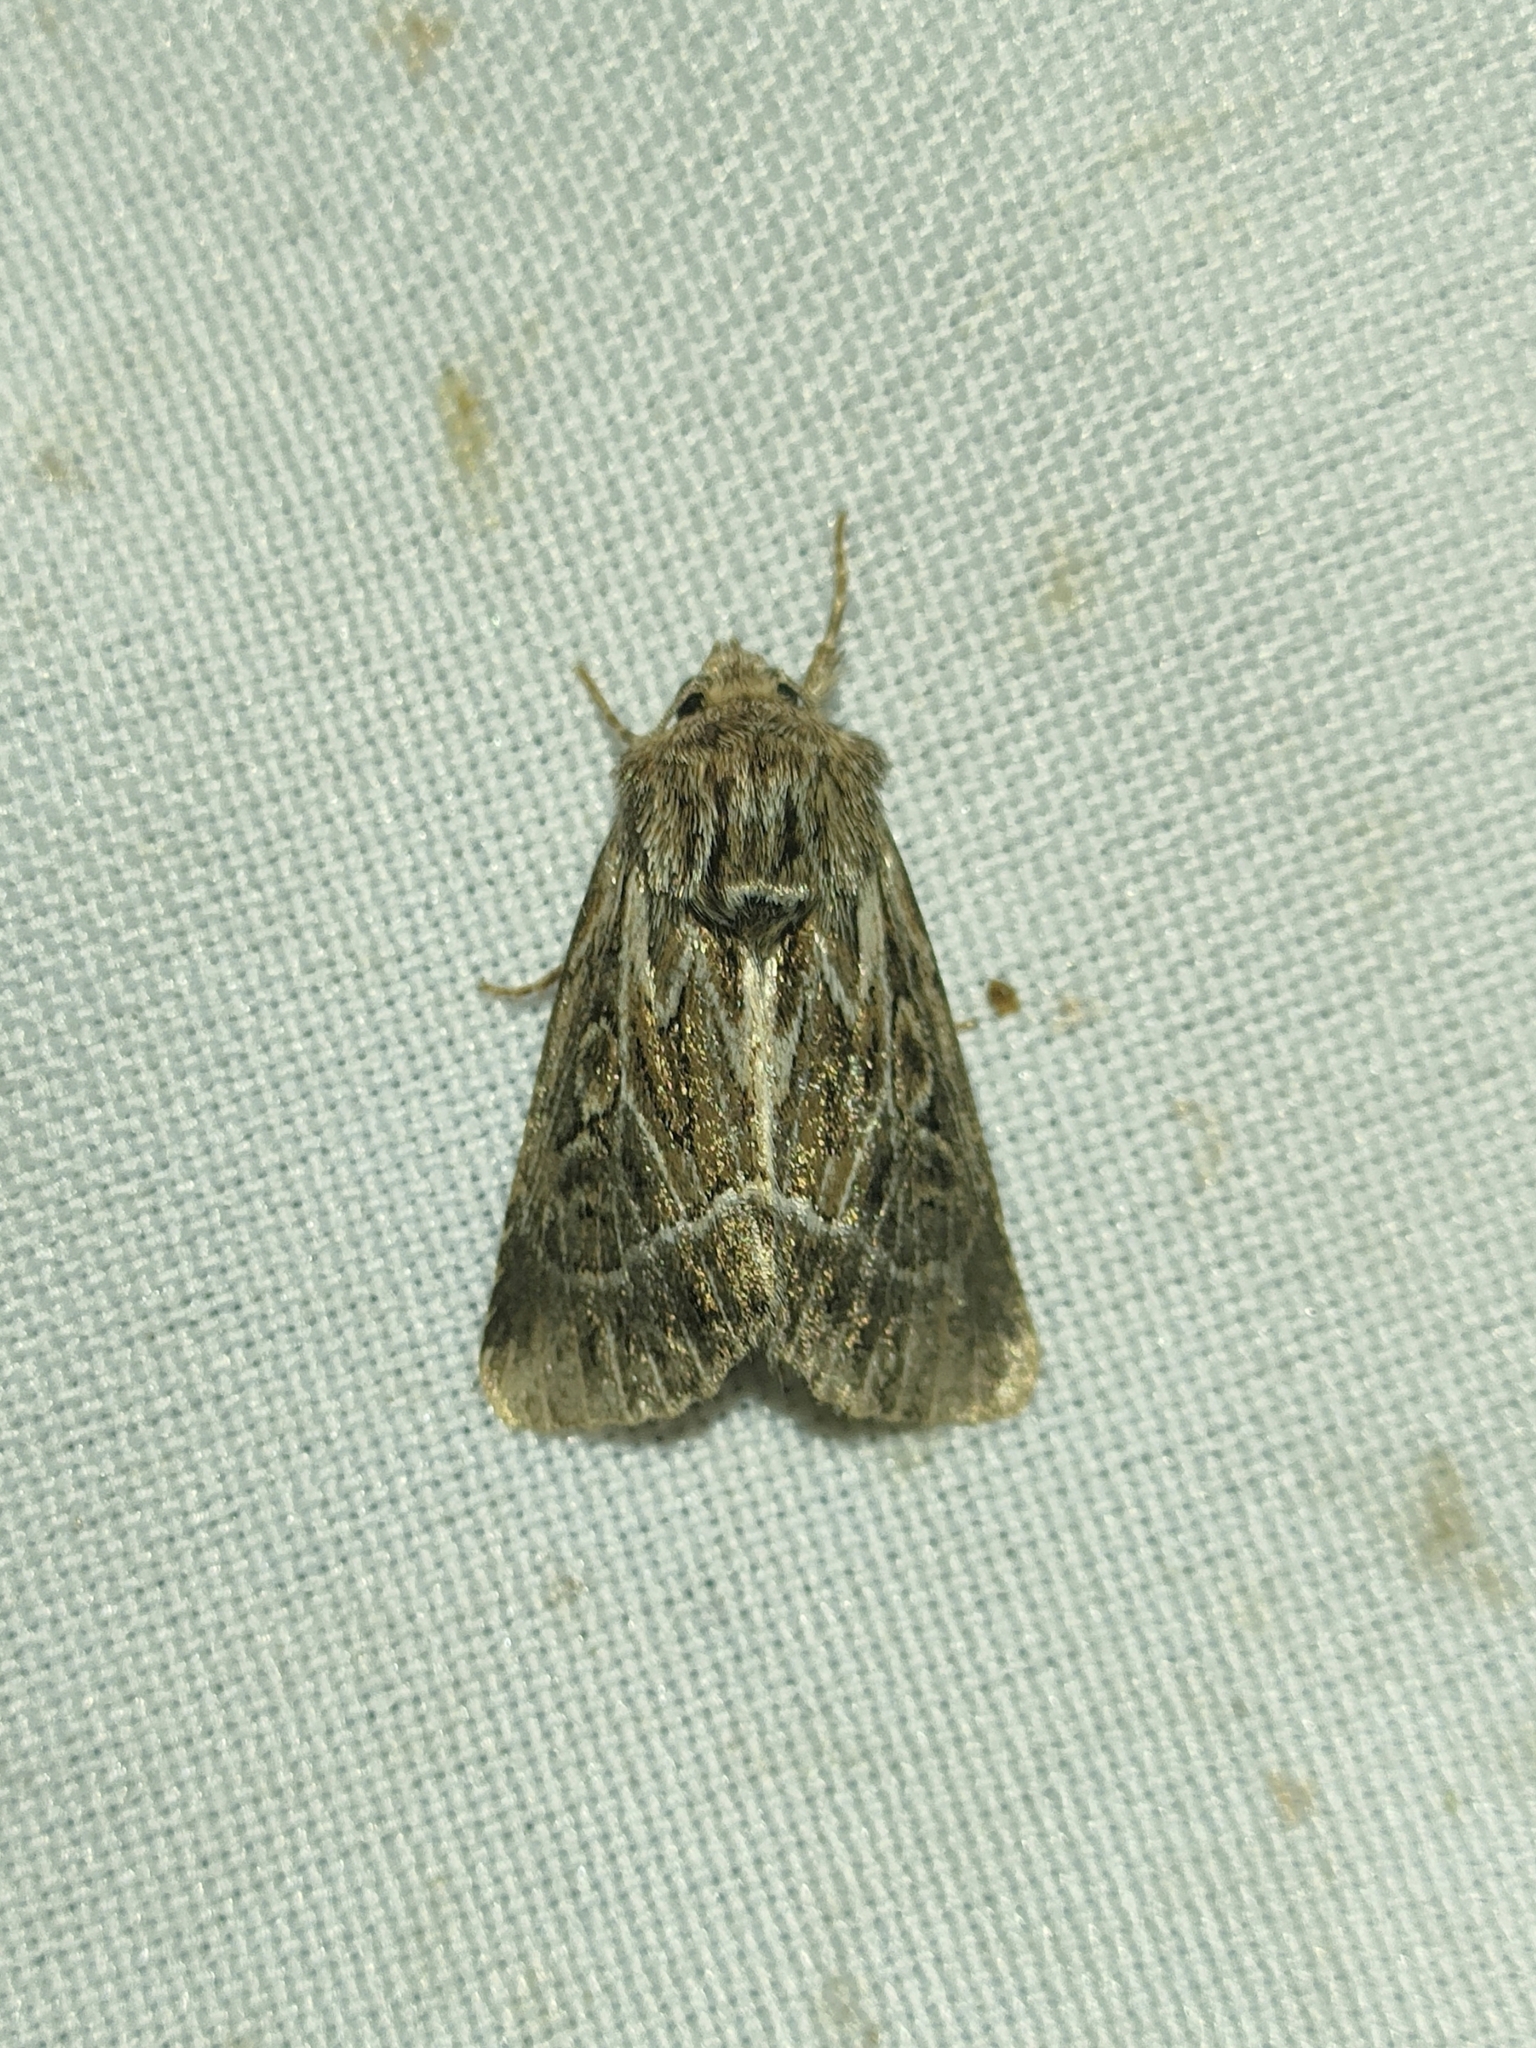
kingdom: Animalia
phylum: Arthropoda
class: Insecta
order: Lepidoptera
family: Noctuidae
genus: Thalpophila
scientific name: Thalpophila vitalba
